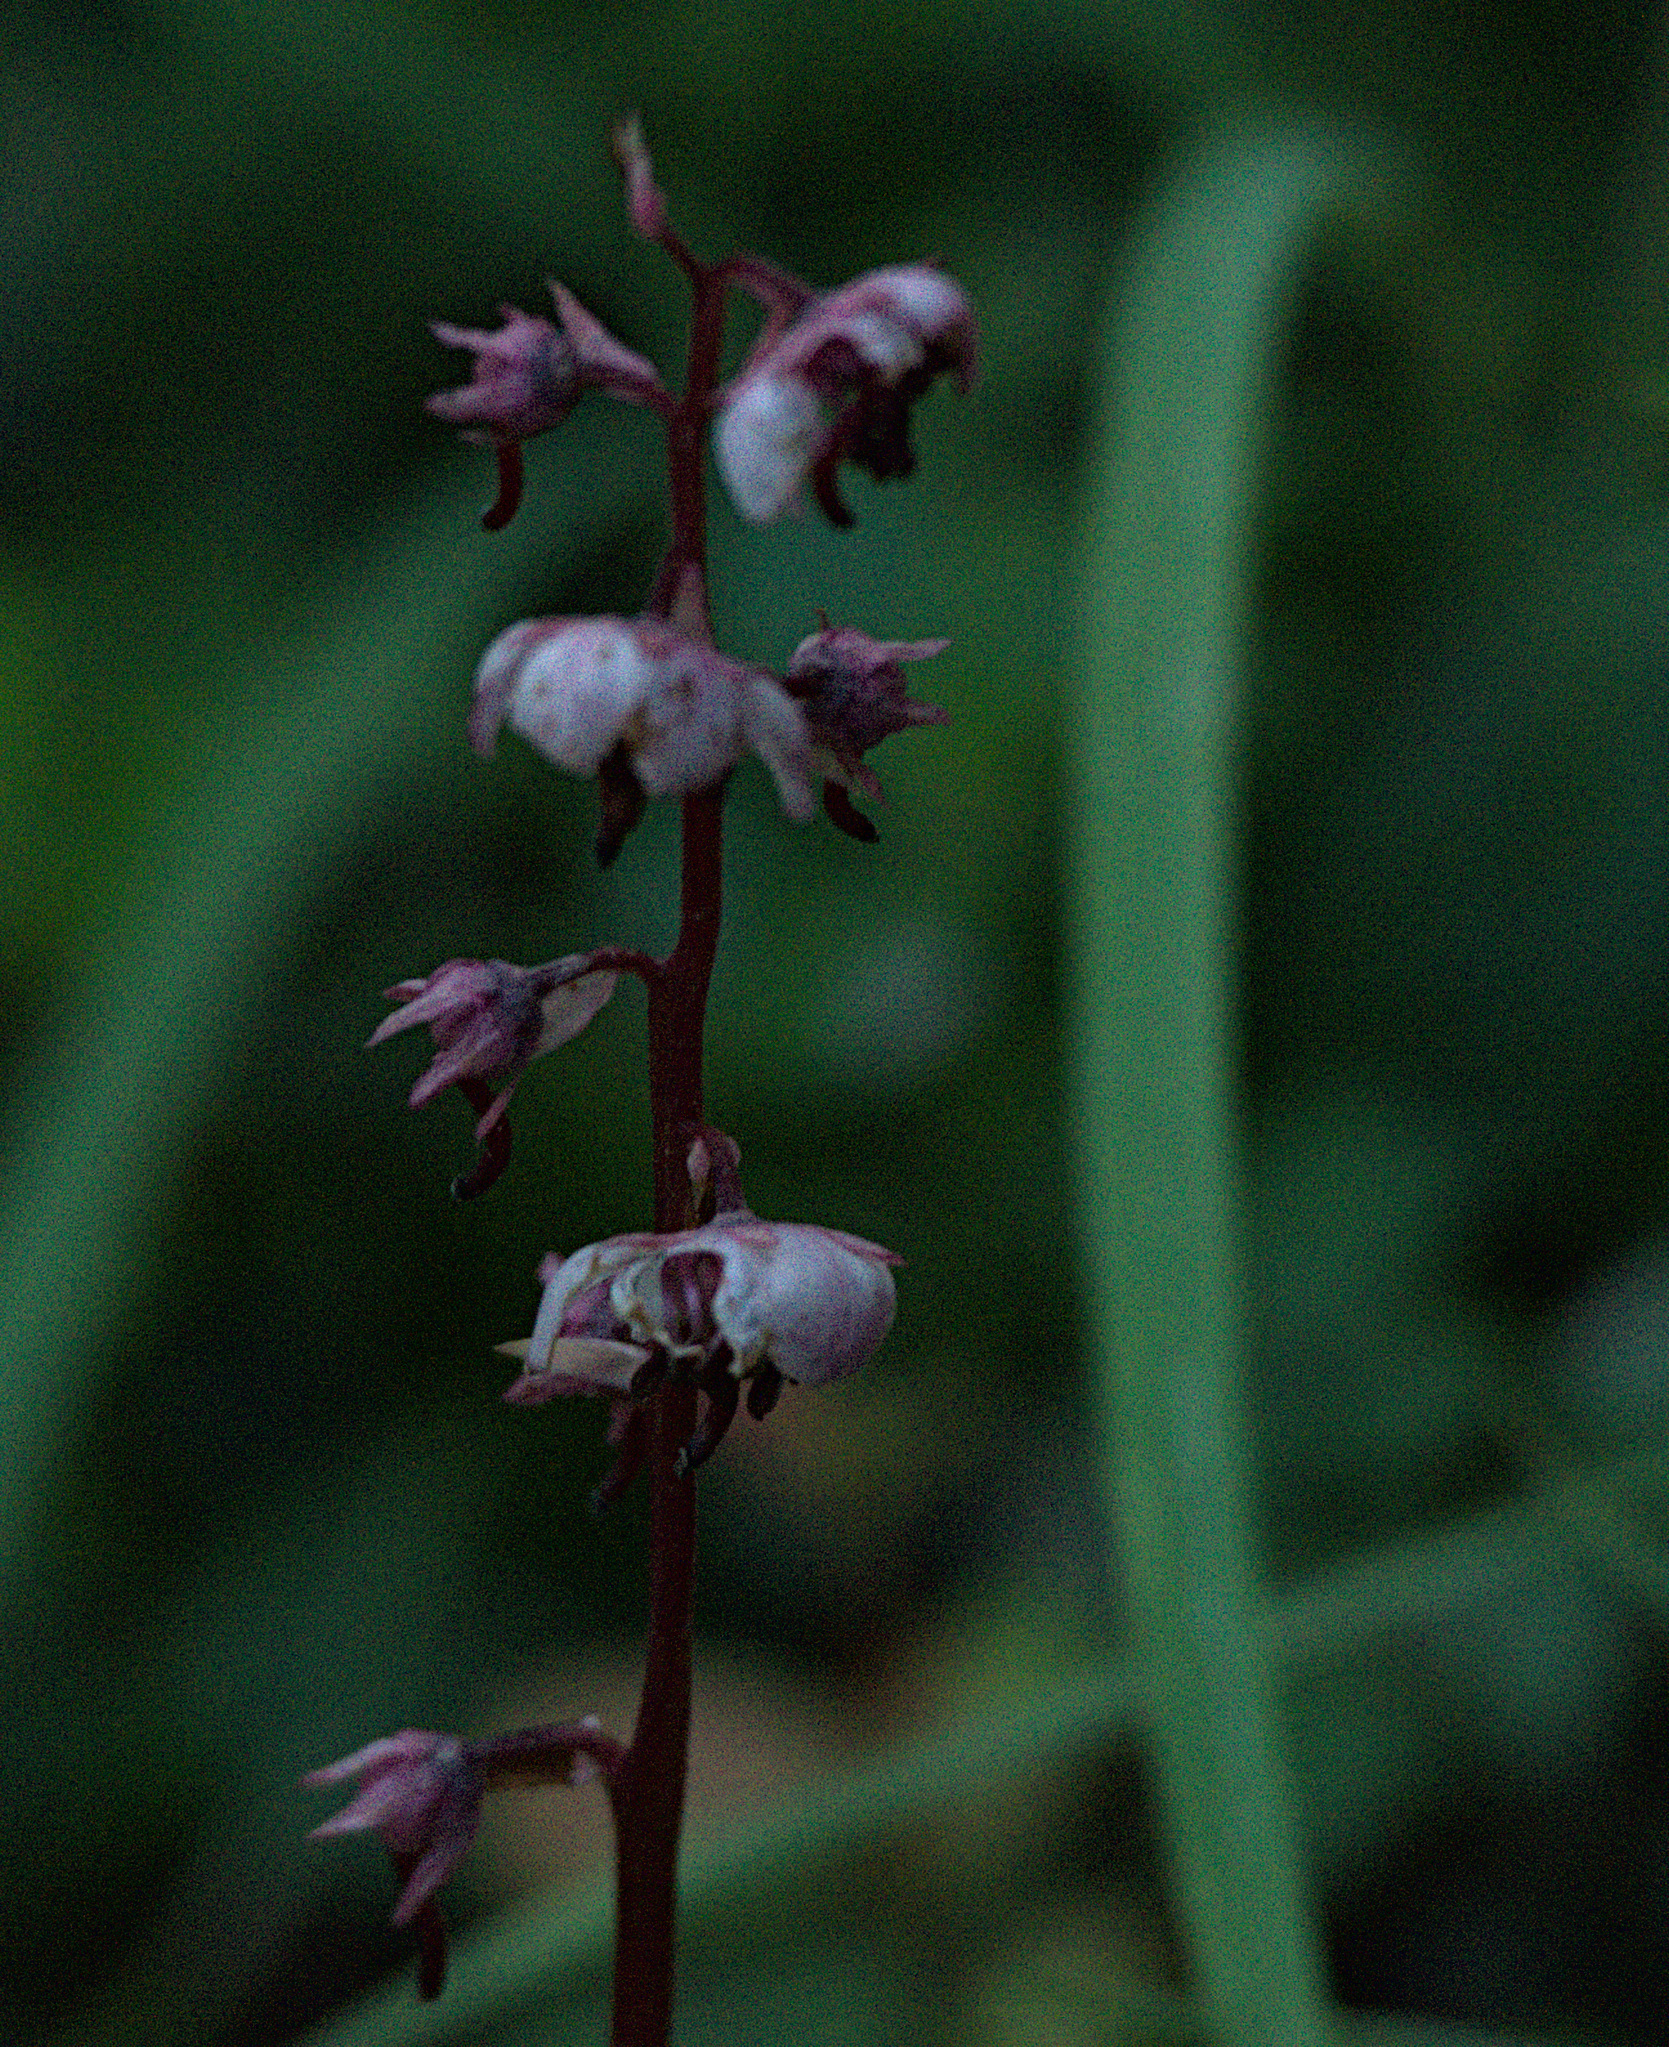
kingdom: Plantae
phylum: Tracheophyta
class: Magnoliopsida
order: Ericales
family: Ericaceae
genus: Pyrola
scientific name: Pyrola asarifolia
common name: Bog wintergreen
